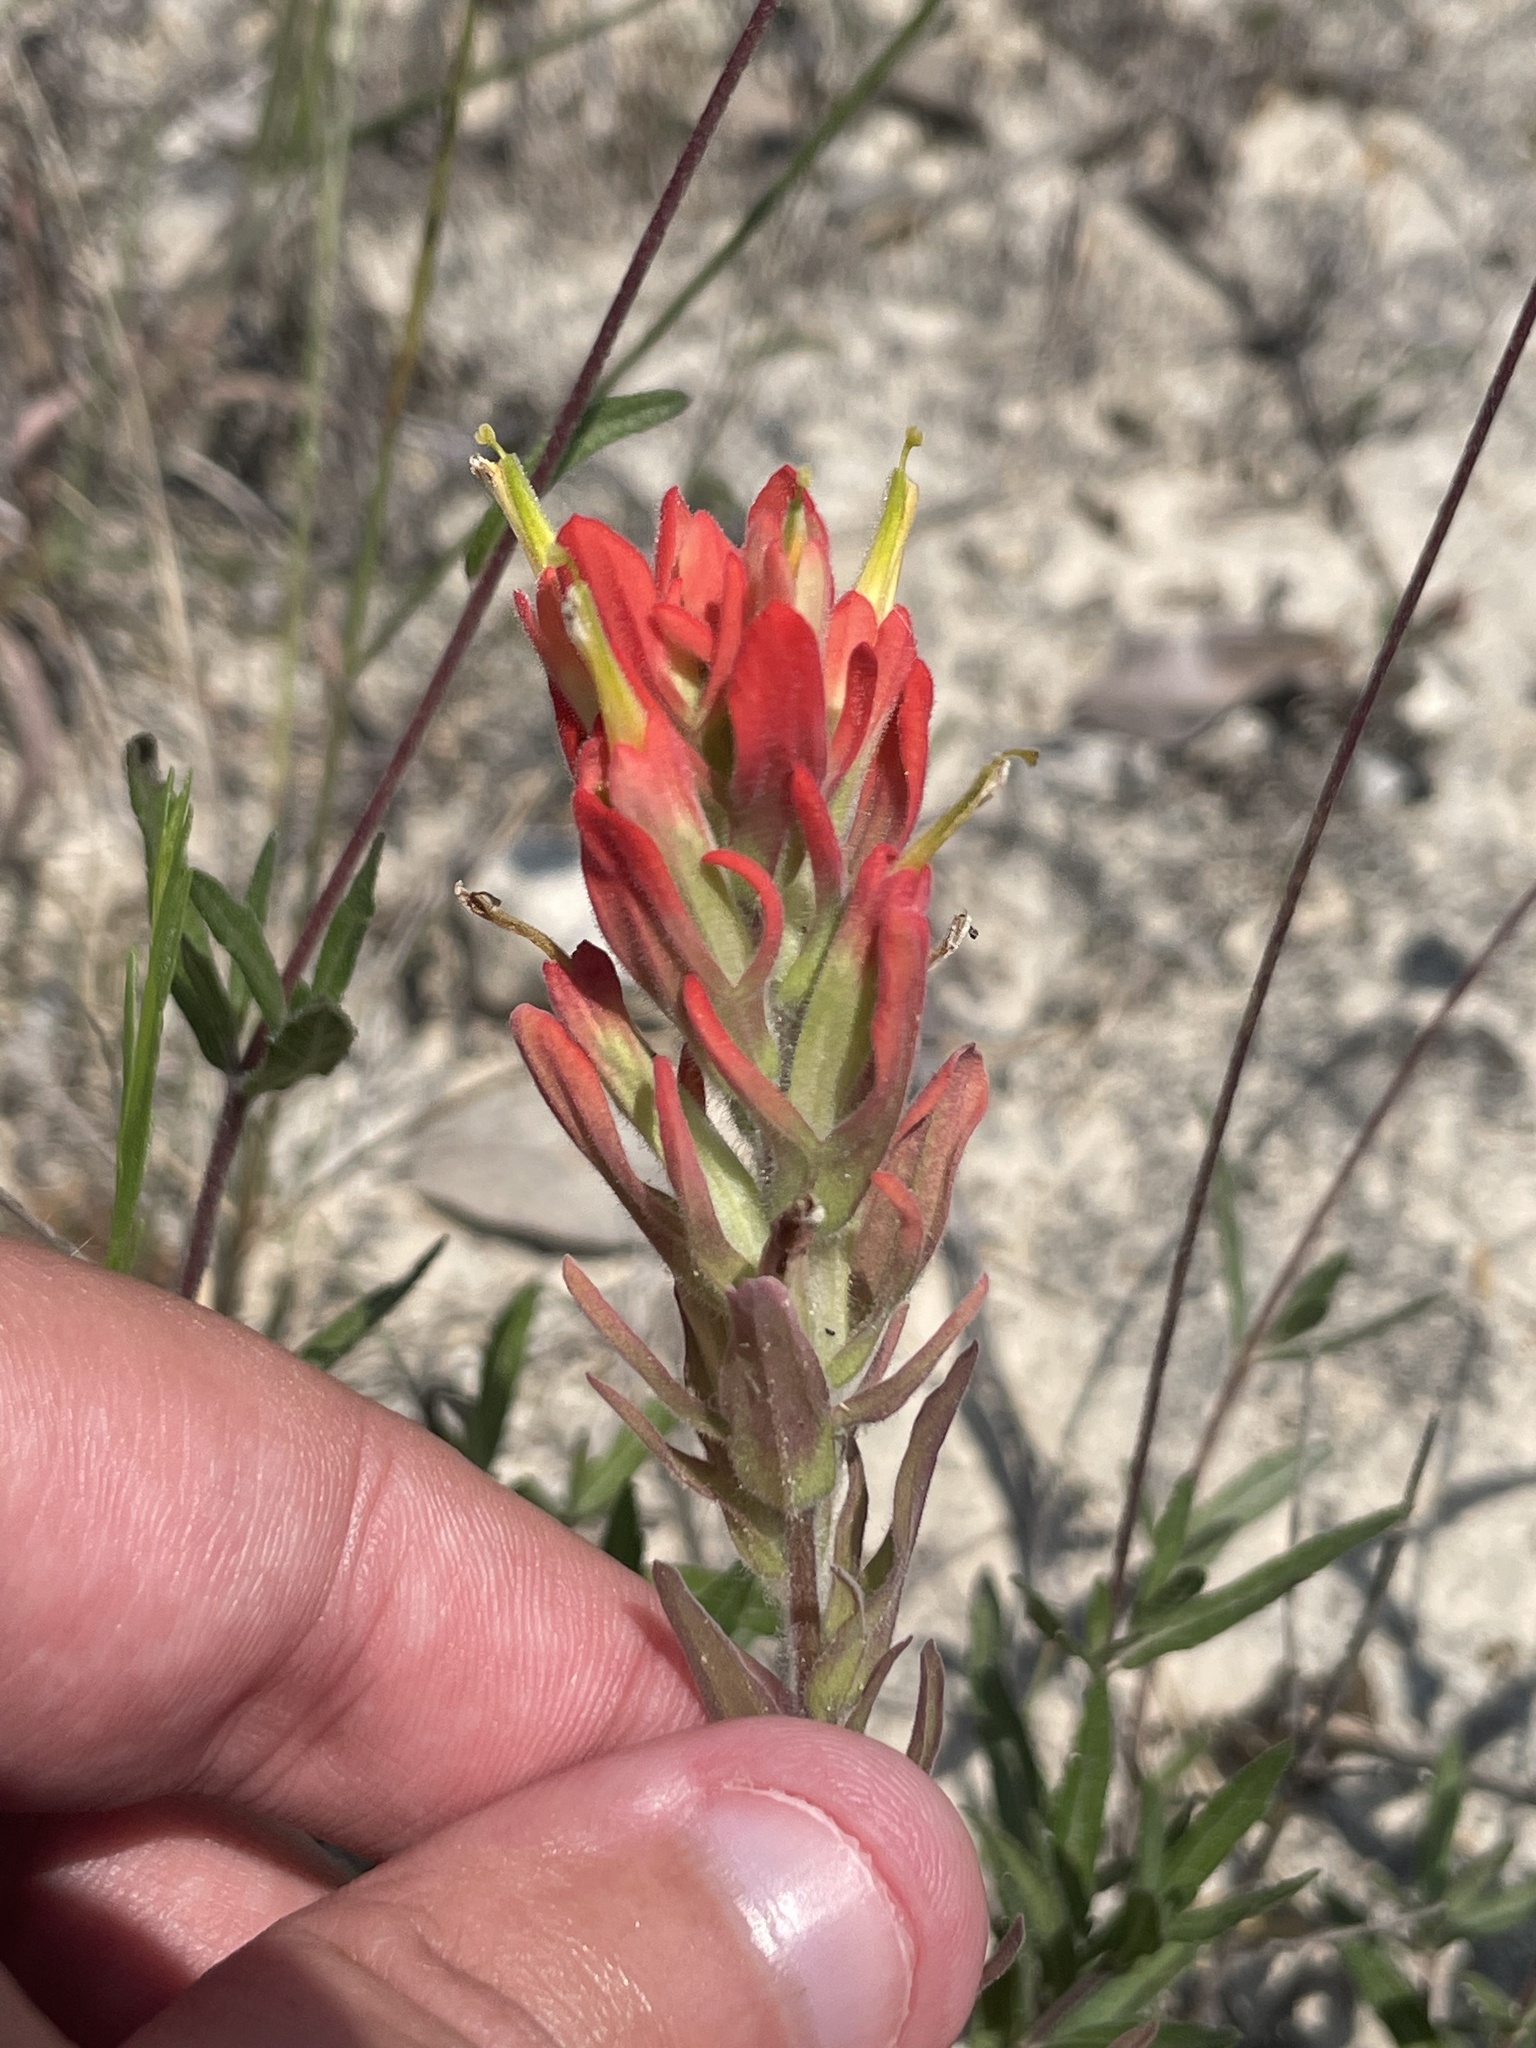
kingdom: Plantae
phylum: Tracheophyta
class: Magnoliopsida
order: Lamiales
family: Orobanchaceae
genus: Castilleja
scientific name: Castilleja lindheimeri
